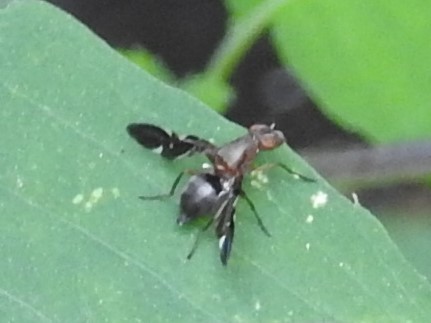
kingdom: Animalia
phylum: Arthropoda
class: Insecta
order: Diptera
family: Ulidiidae
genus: Delphinia
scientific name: Delphinia picta
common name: Common picture-winged fly
